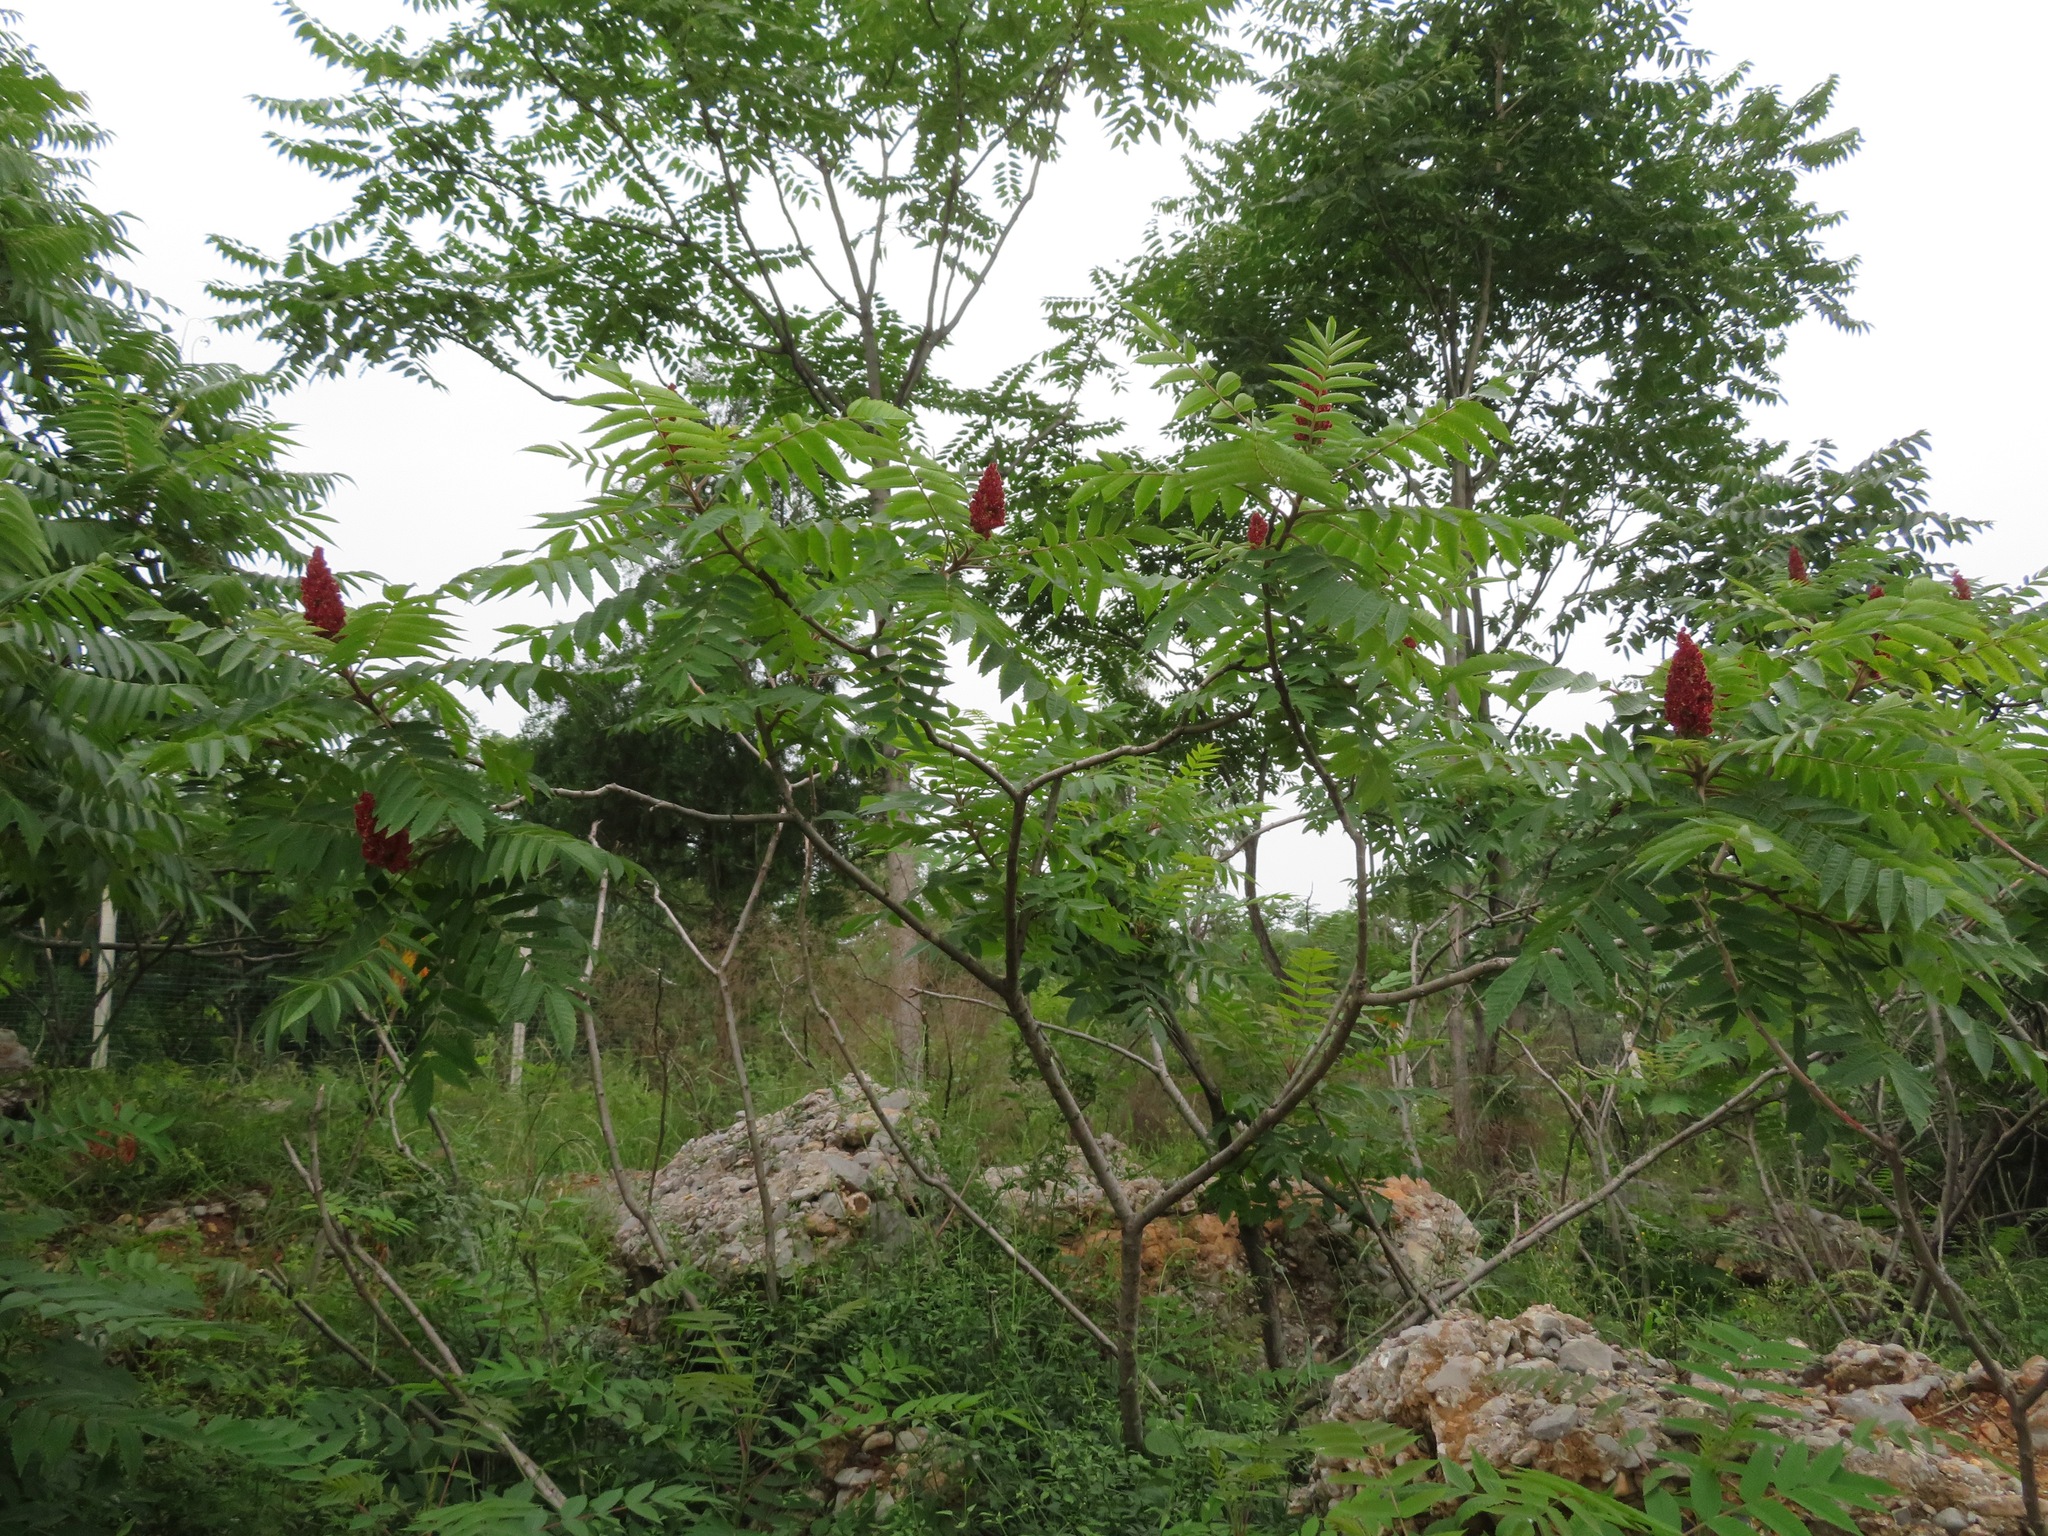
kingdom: Plantae
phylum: Tracheophyta
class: Magnoliopsida
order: Sapindales
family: Anacardiaceae
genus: Rhus
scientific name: Rhus typhina
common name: Staghorn sumac
